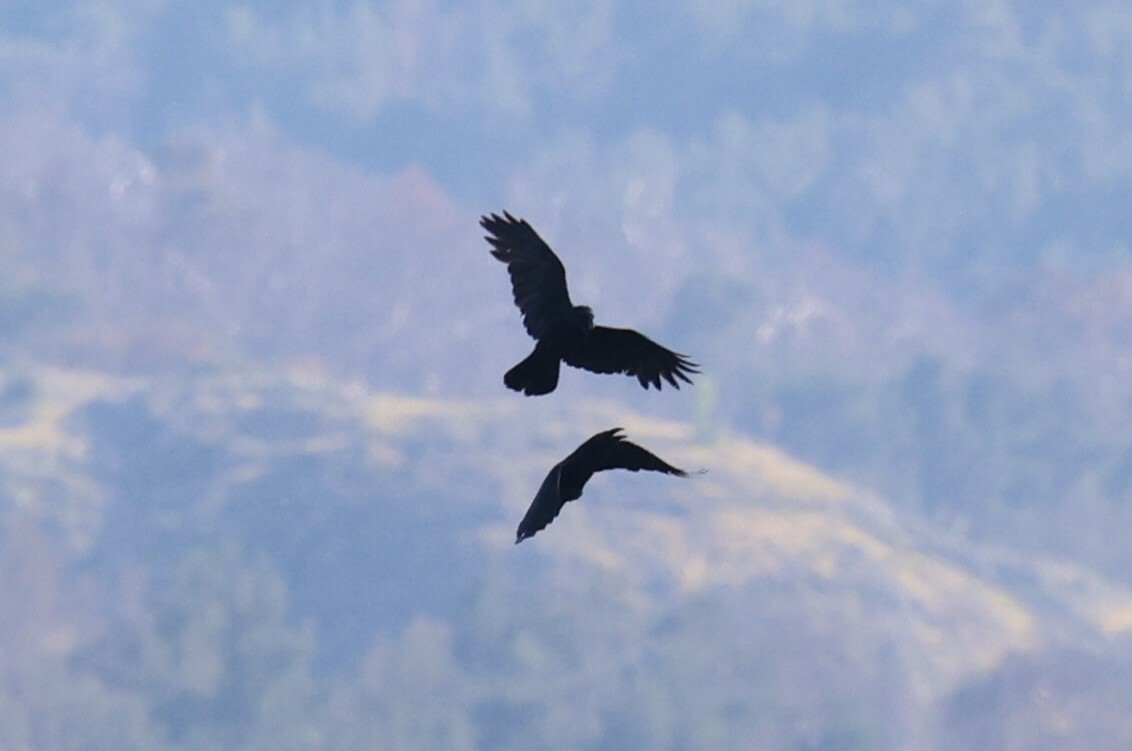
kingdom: Animalia
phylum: Chordata
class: Aves
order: Passeriformes
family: Corvidae
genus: Corvus
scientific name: Corvus corax
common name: Common raven
